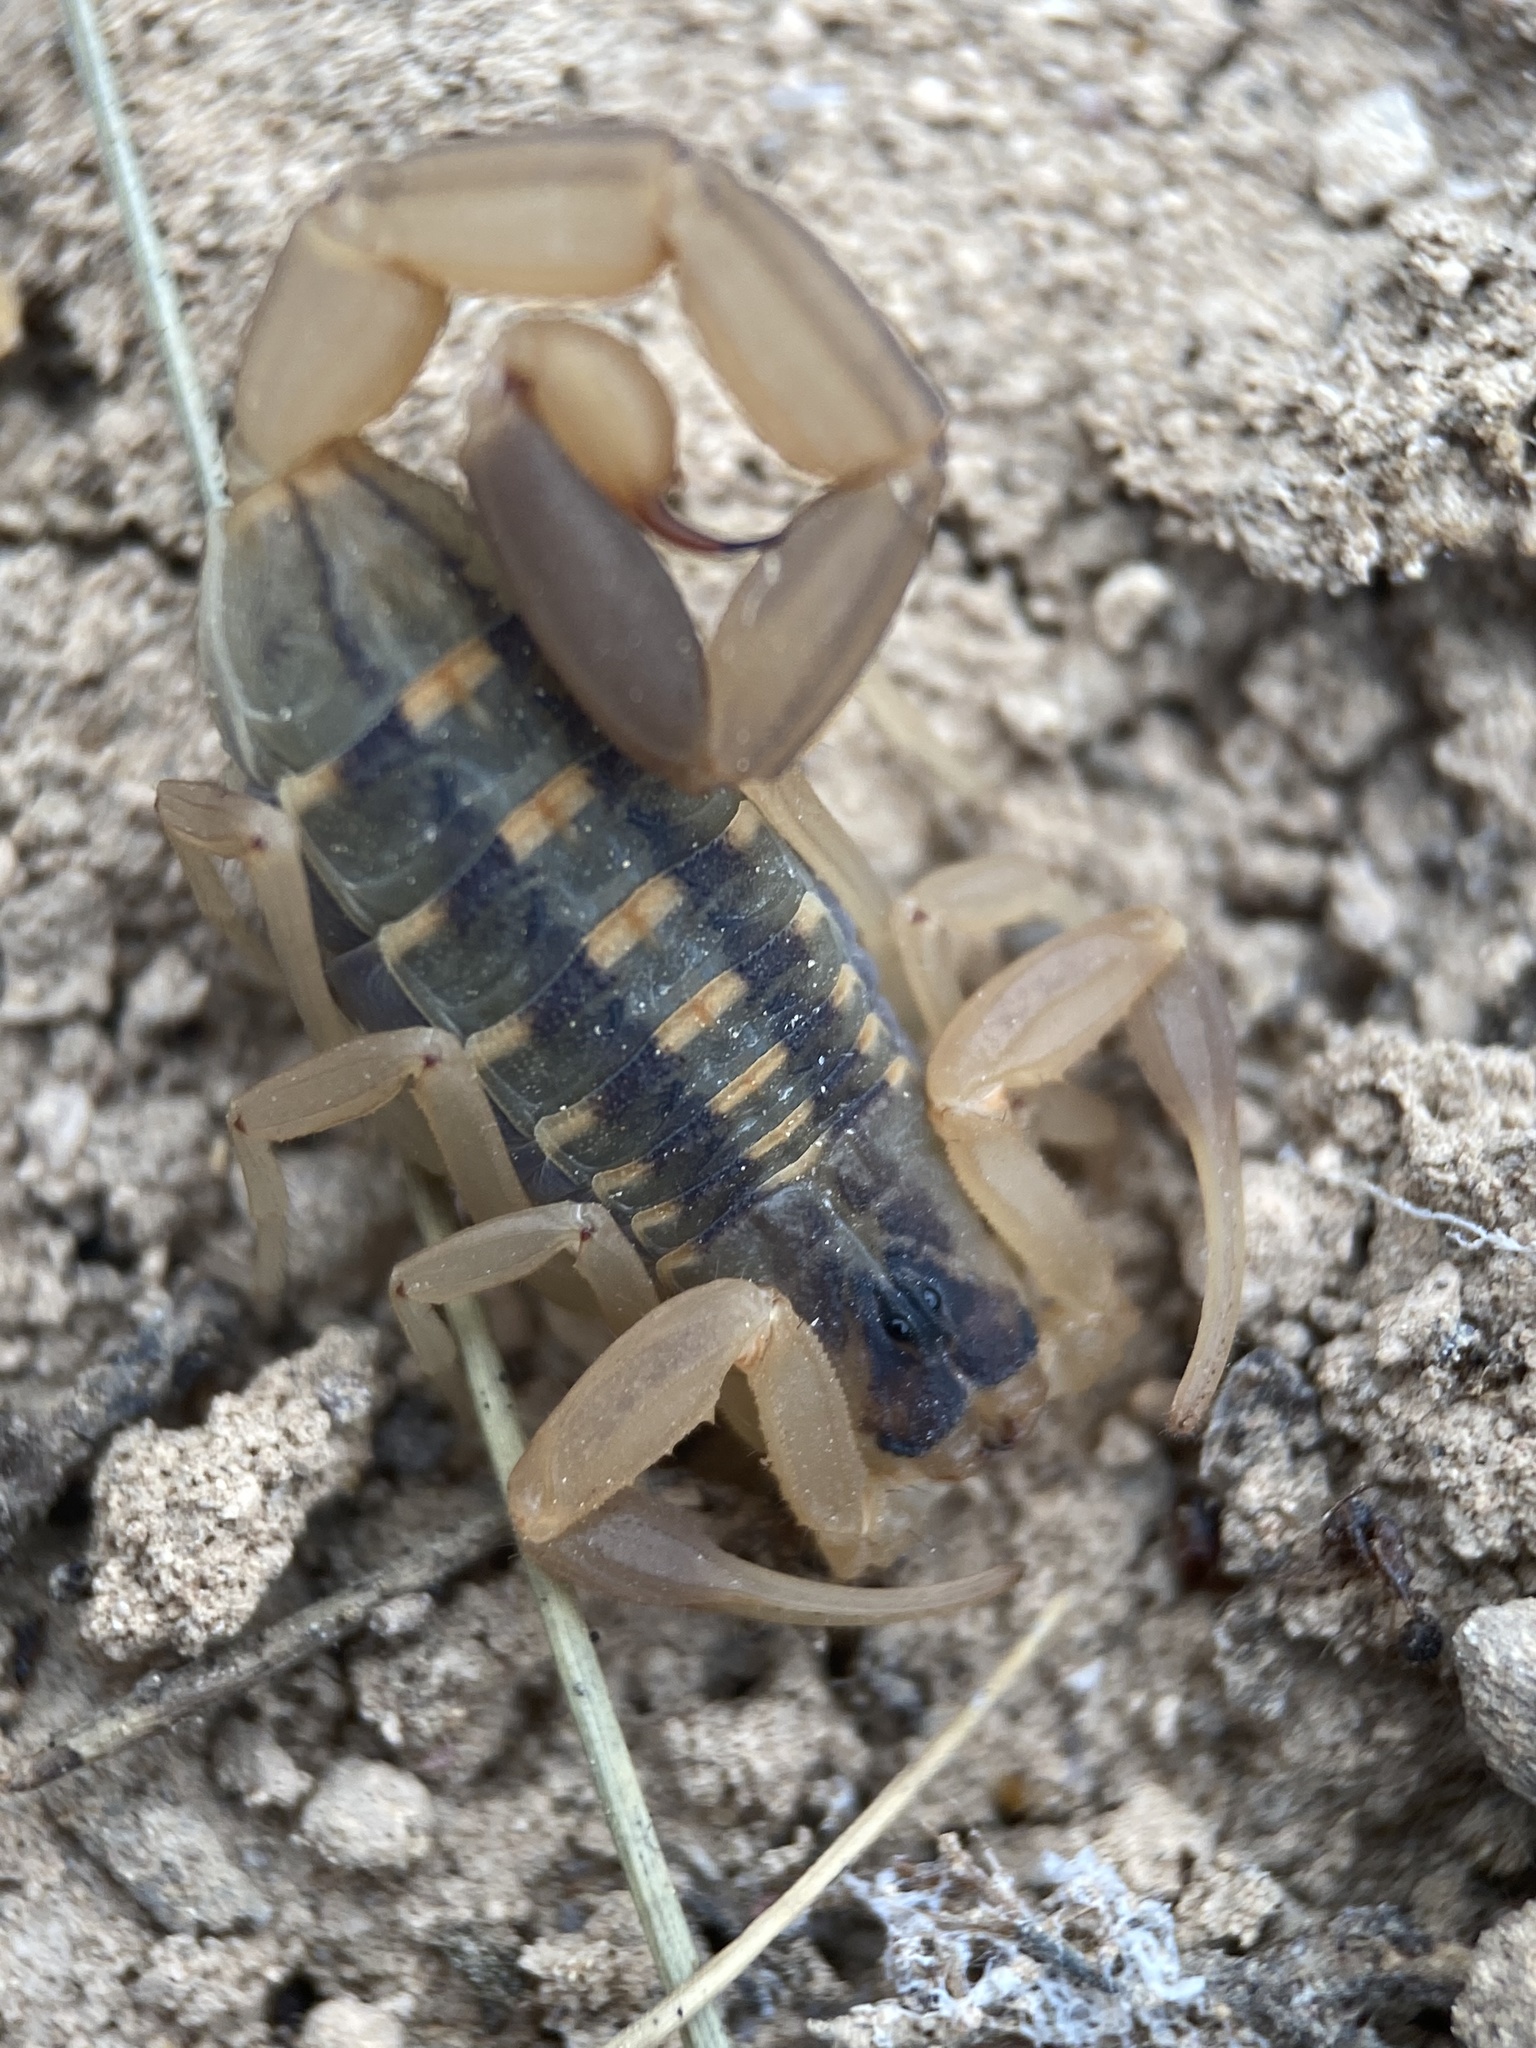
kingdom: Animalia
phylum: Arthropoda
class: Arachnida
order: Scorpiones
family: Buthidae
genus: Centruroides
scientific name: Centruroides vittatus
